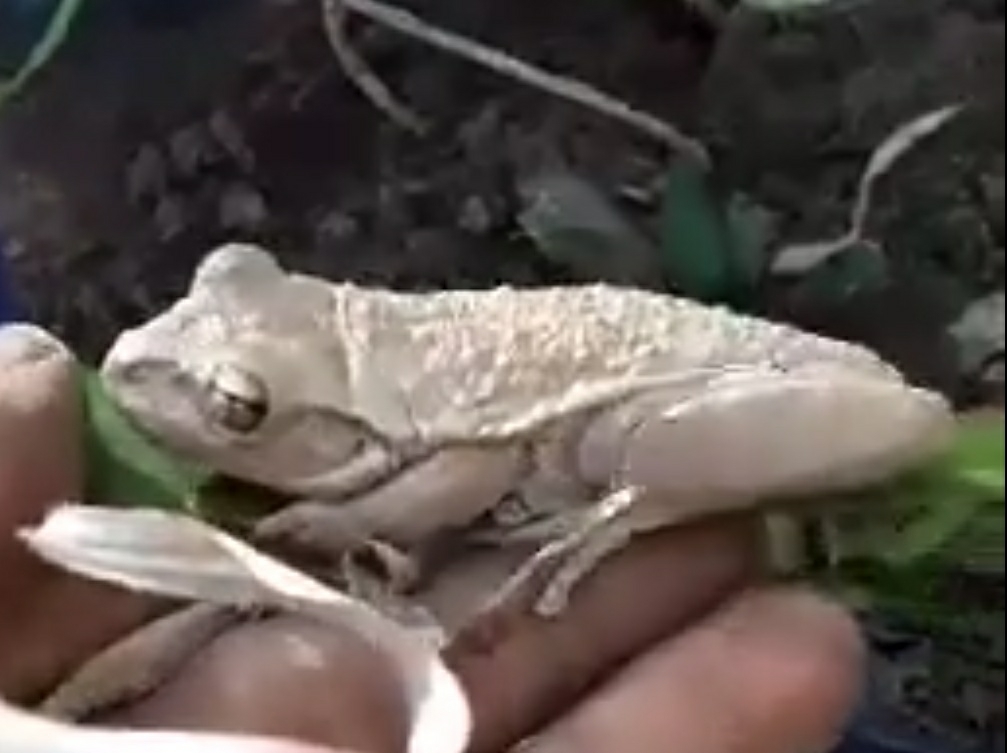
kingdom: Animalia
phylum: Chordata
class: Amphibia
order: Anura
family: Hylidae
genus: Osteopilus
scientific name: Osteopilus septentrionalis
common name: Cuban treefrog
